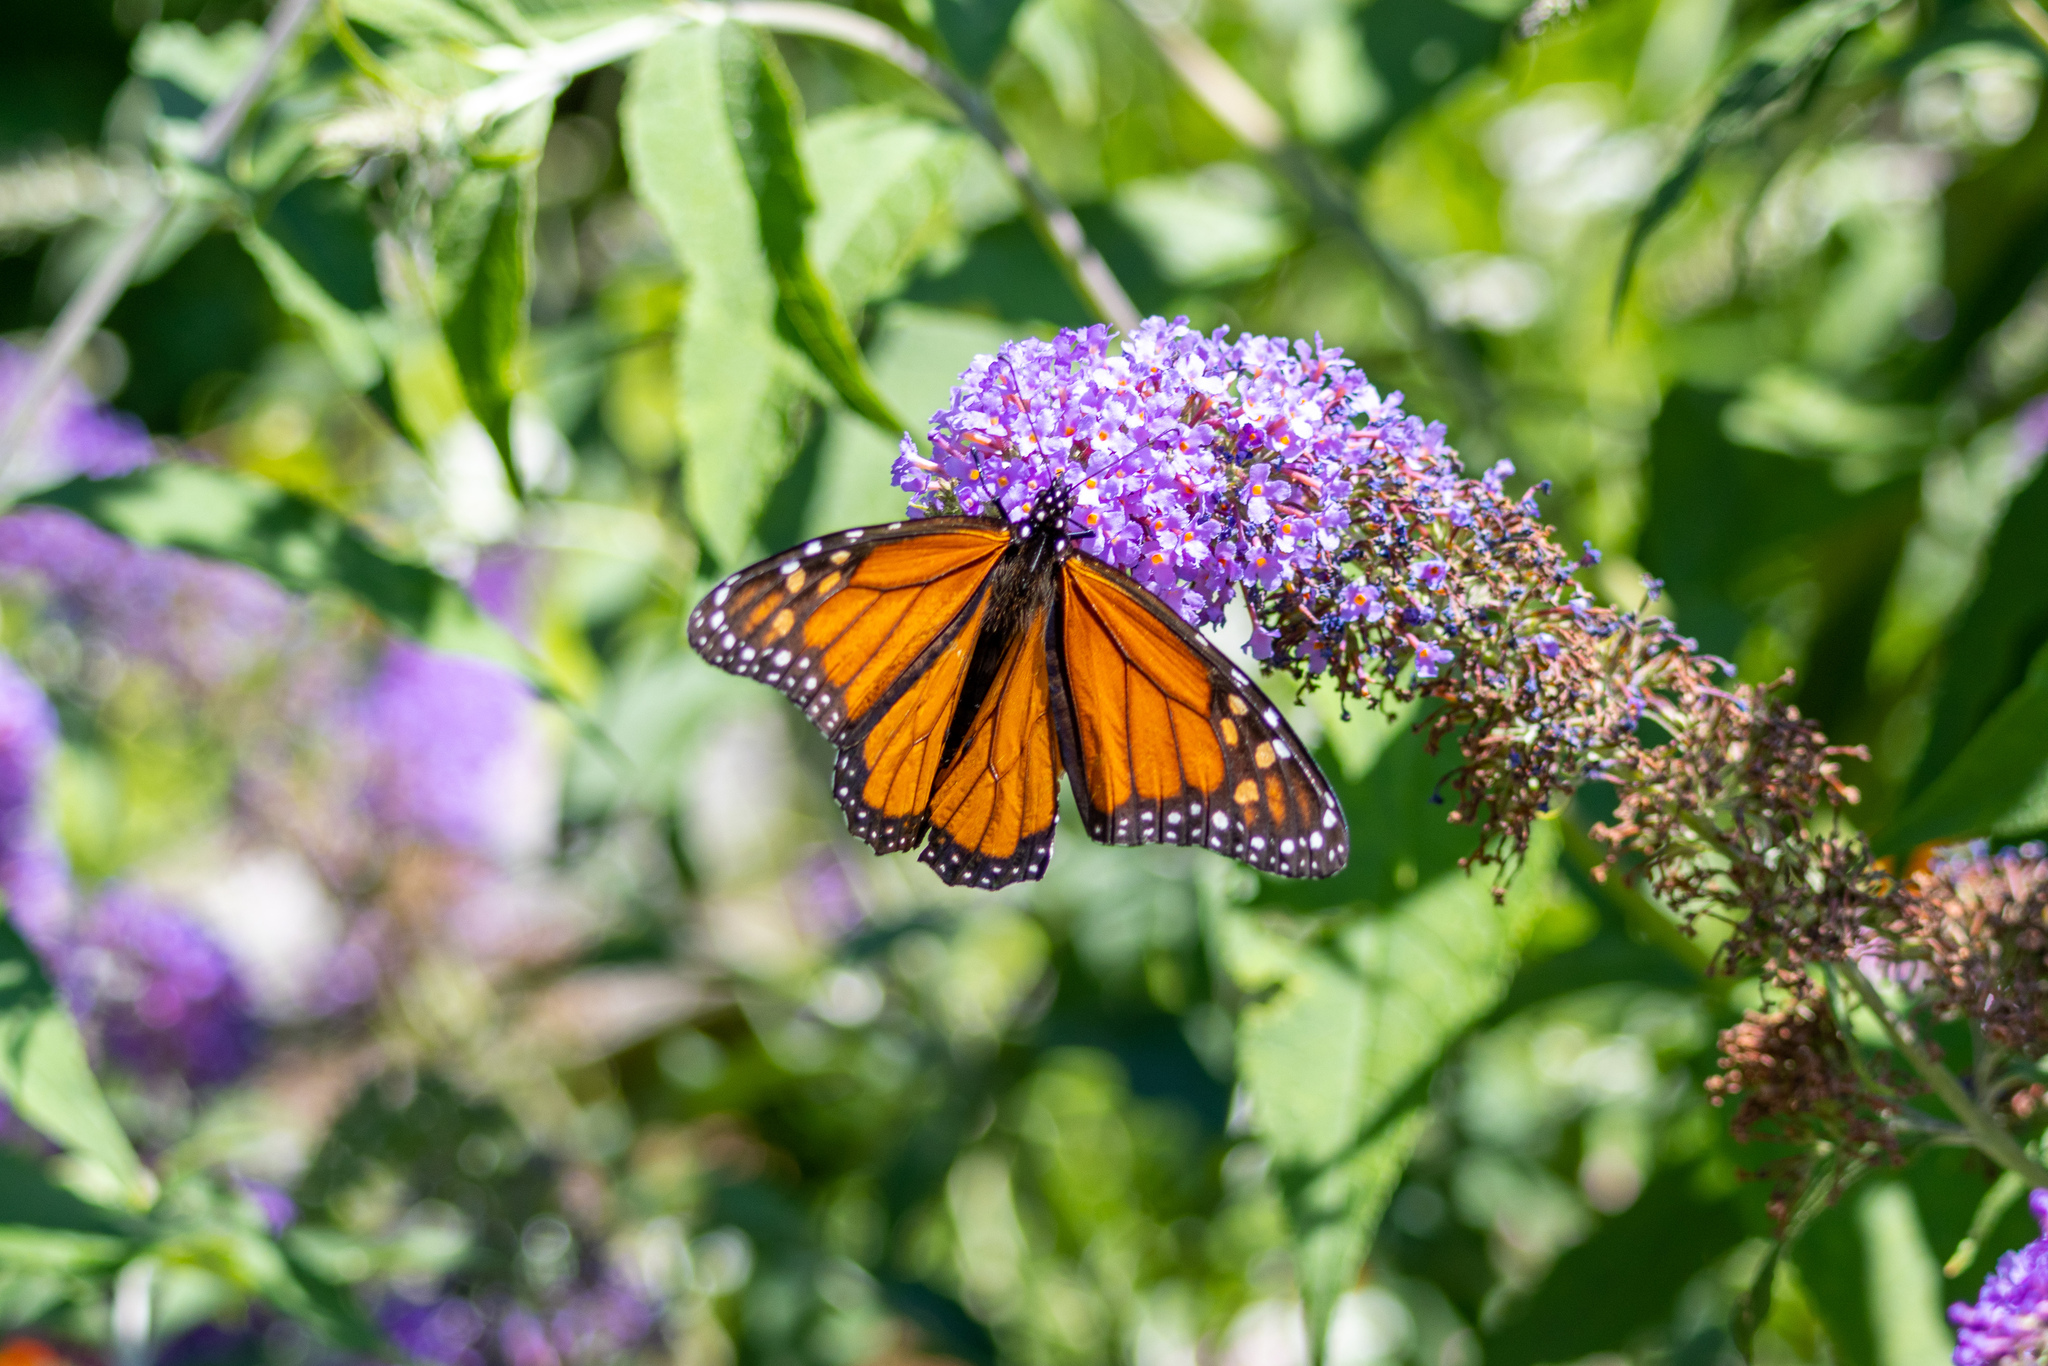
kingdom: Animalia
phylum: Arthropoda
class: Insecta
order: Lepidoptera
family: Nymphalidae
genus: Danaus
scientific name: Danaus plexippus
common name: Monarch
